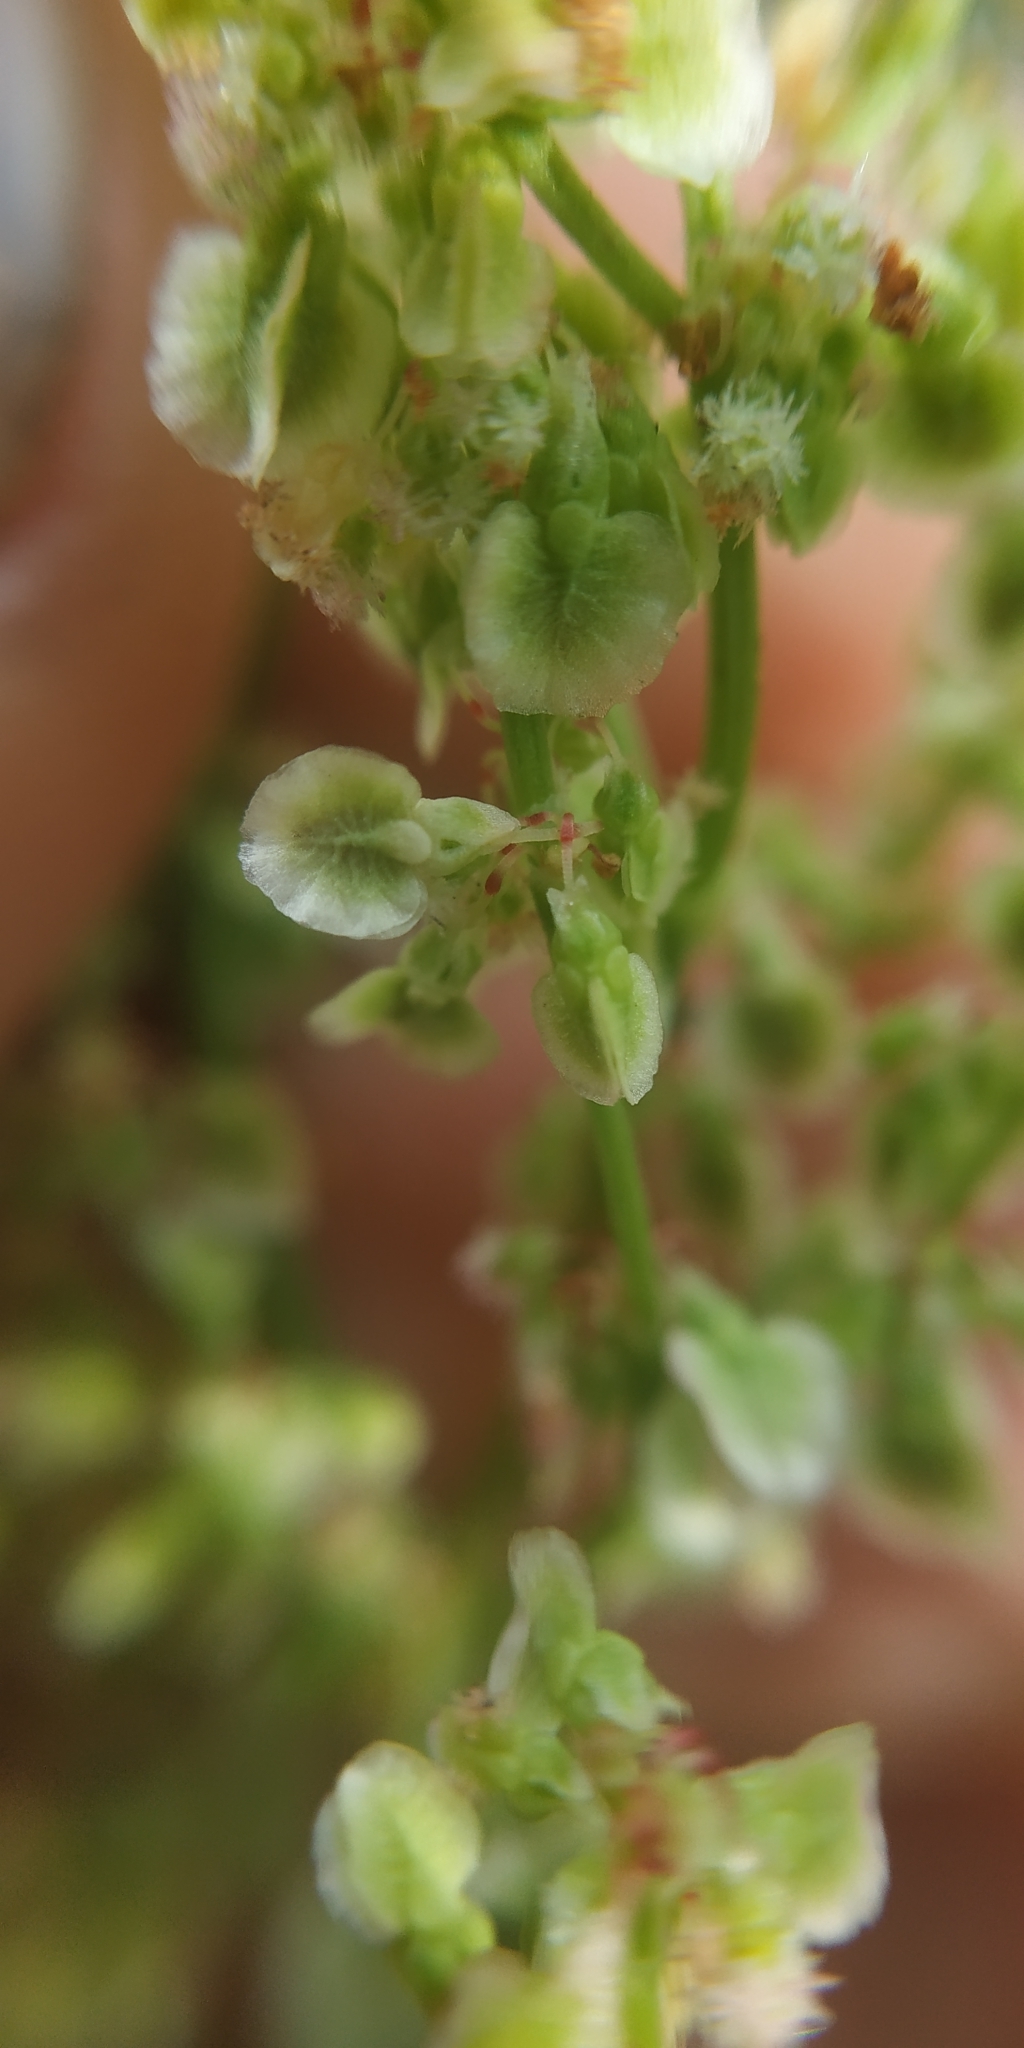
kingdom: Plantae
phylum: Tracheophyta
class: Magnoliopsida
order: Caryophyllales
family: Polygonaceae
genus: Rumex
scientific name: Rumex thyrsiflorus
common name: Garden sorrel
